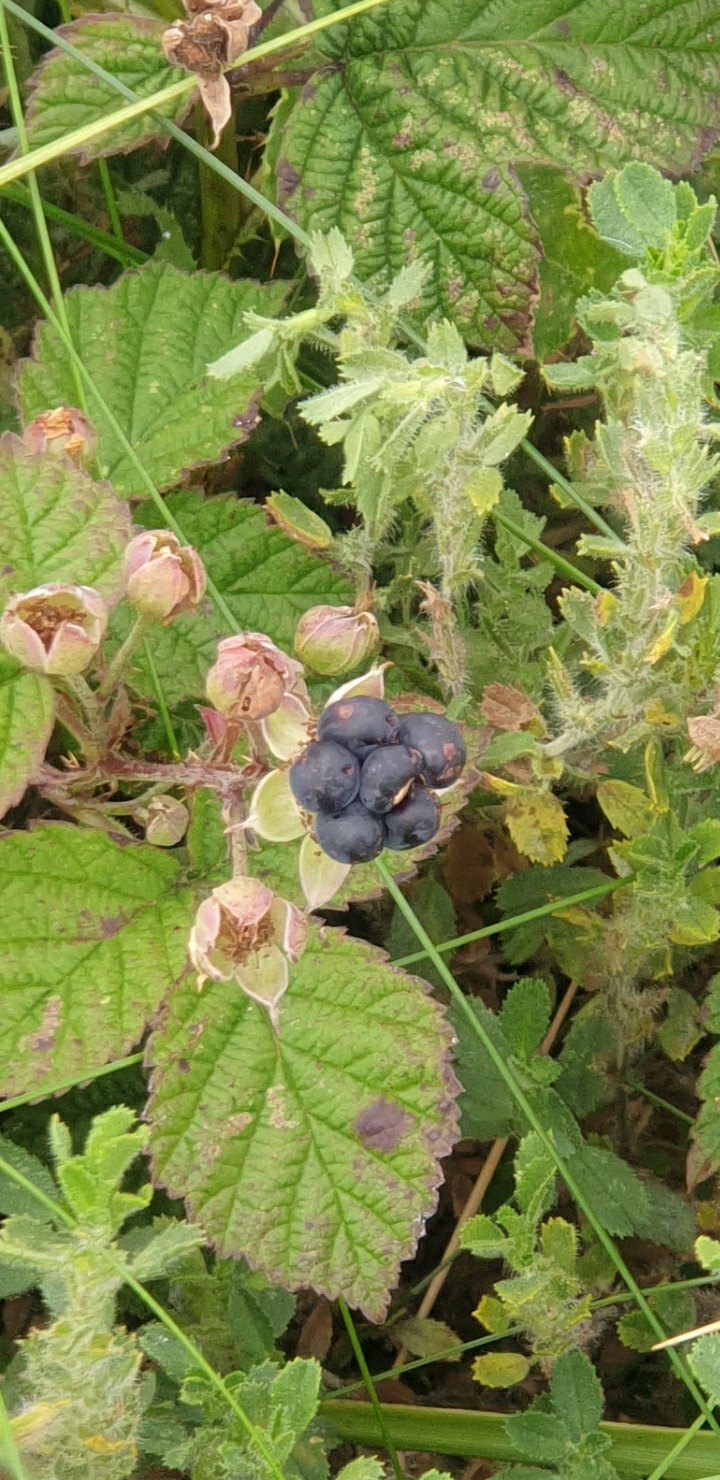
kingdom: Plantae
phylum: Tracheophyta
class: Magnoliopsida
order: Rosales
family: Rosaceae
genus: Rubus
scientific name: Rubus caesius
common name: Dewberry
